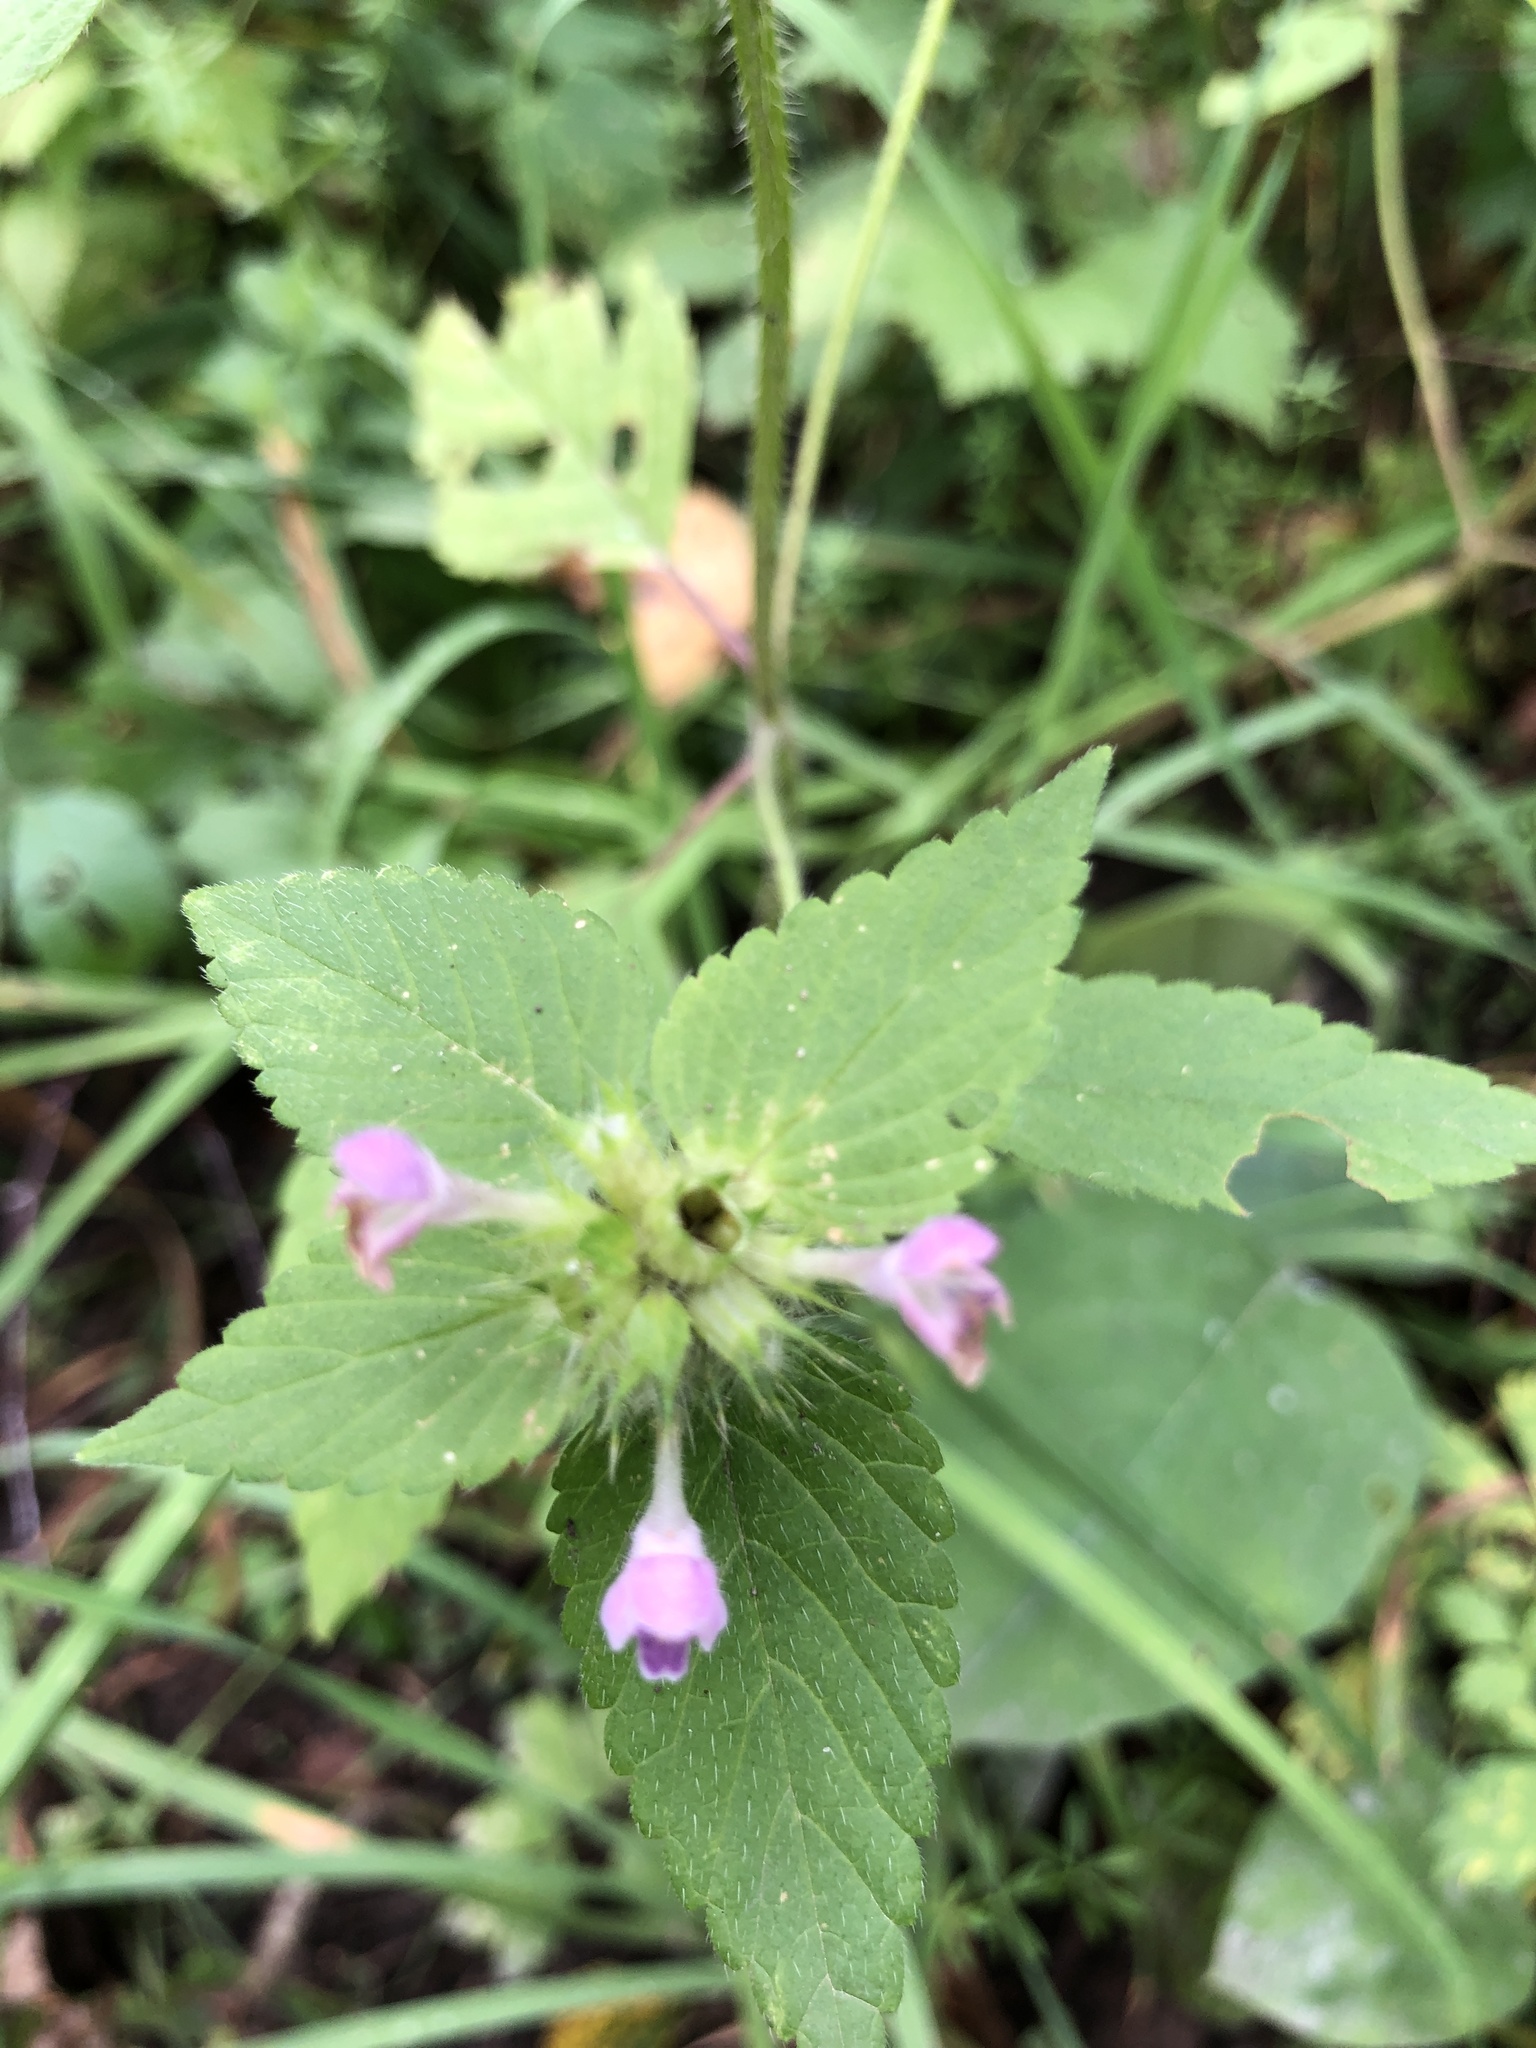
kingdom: Plantae
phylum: Tracheophyta
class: Magnoliopsida
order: Lamiales
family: Lamiaceae
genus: Galeopsis
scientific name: Galeopsis bifida
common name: Bifid hemp-nettle
